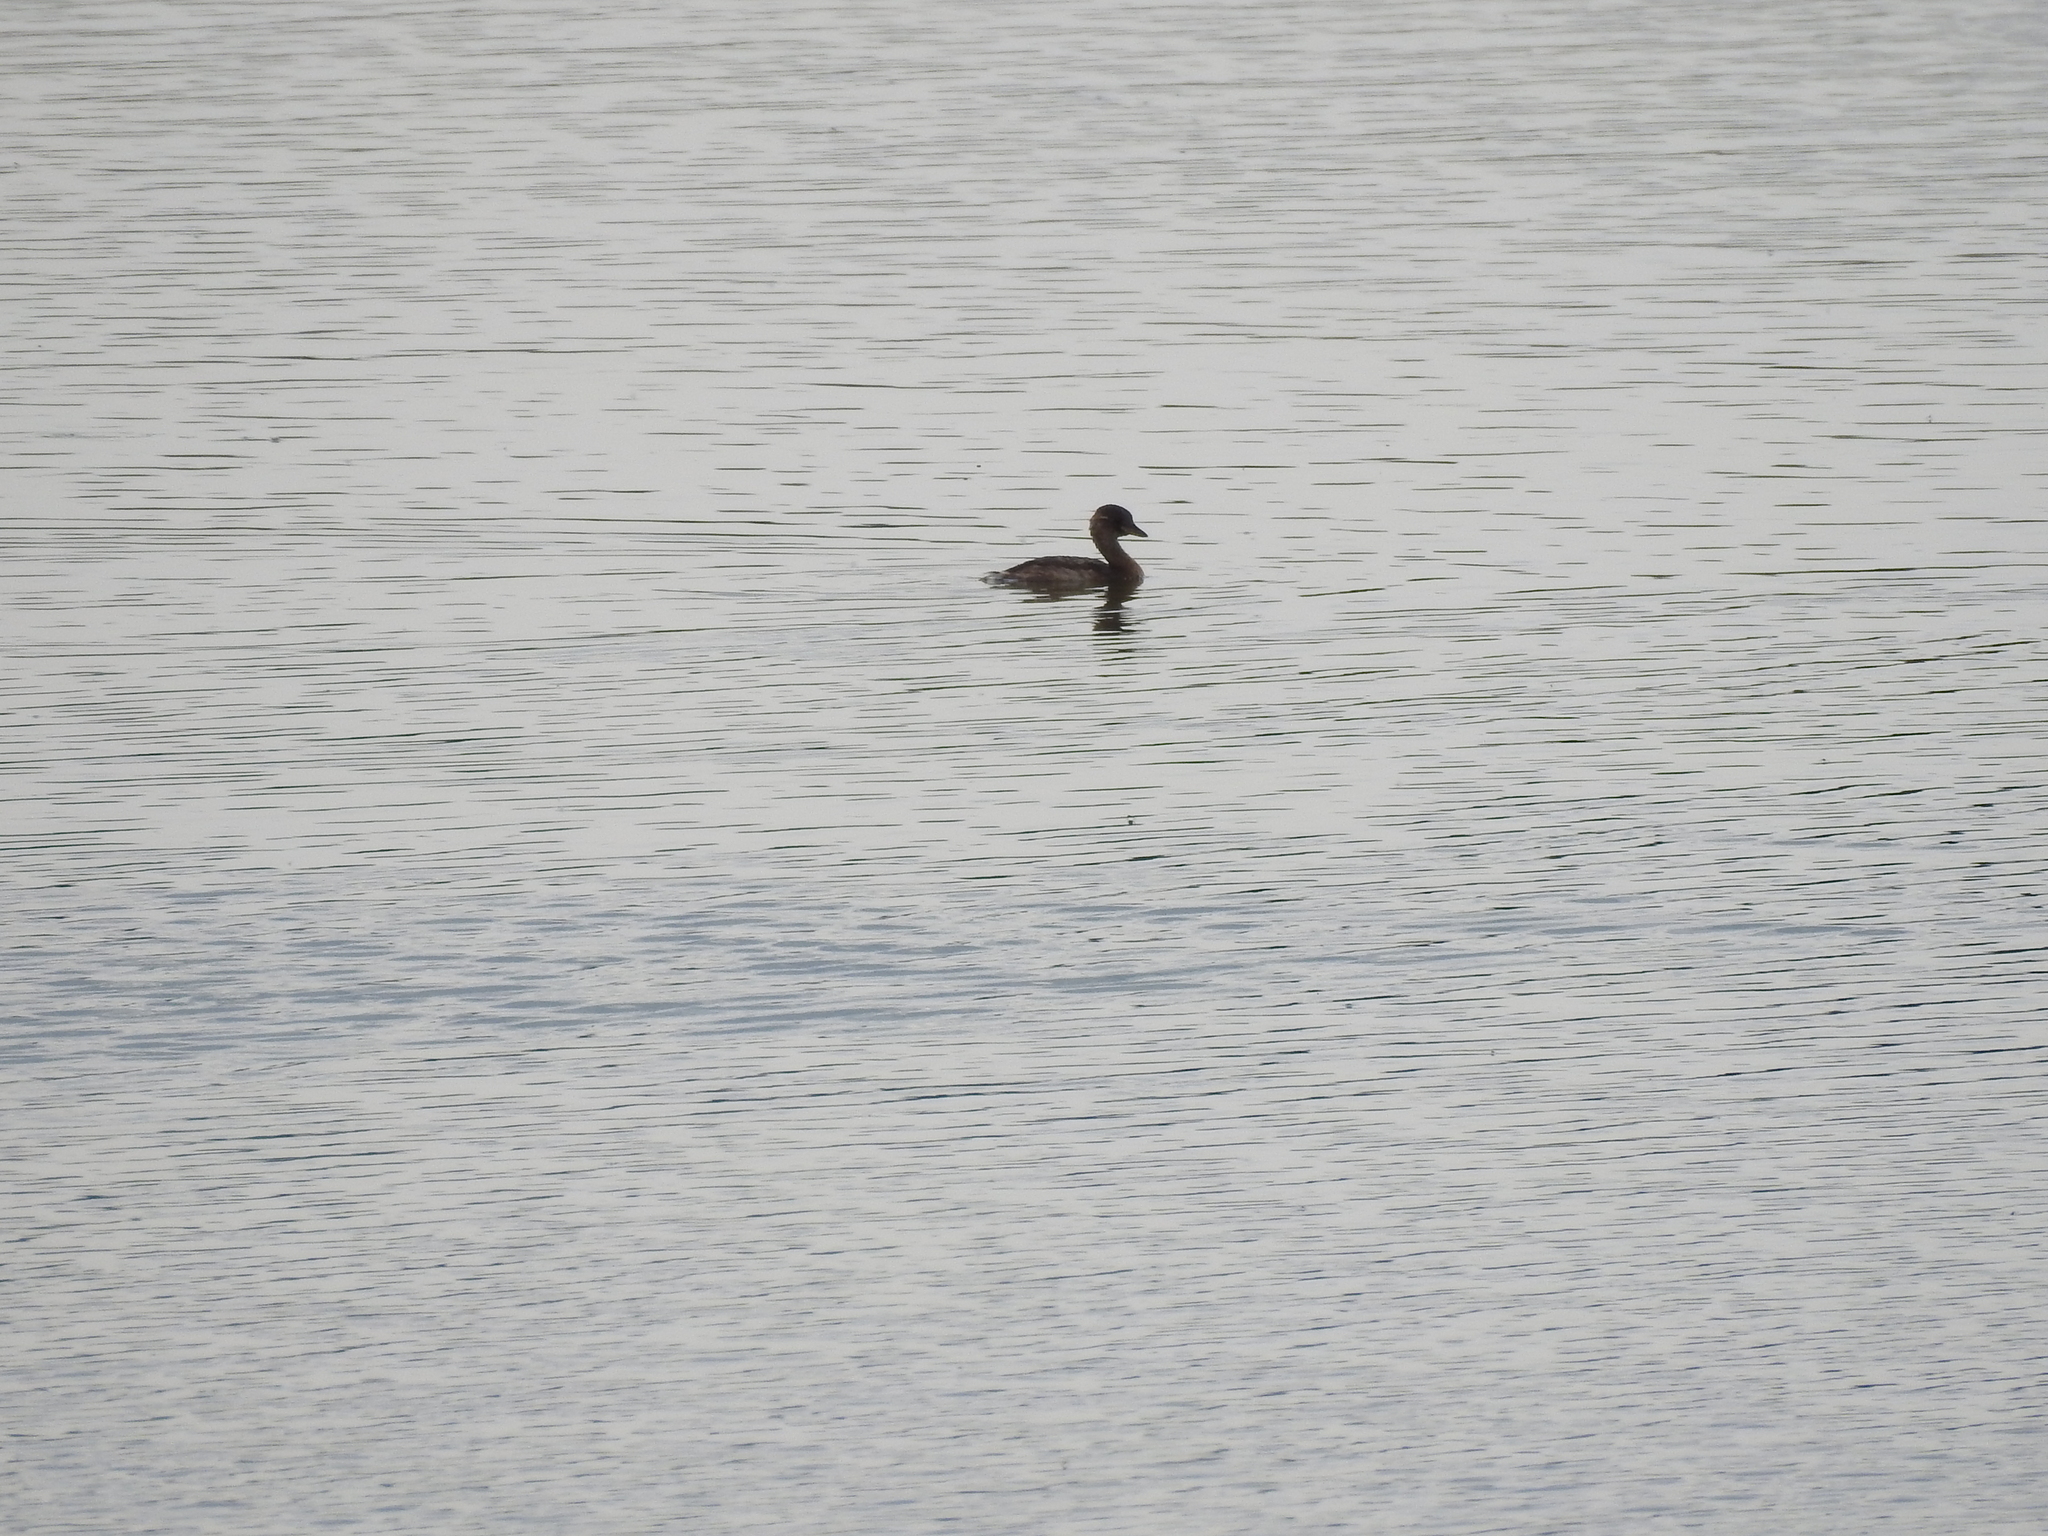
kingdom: Animalia
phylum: Chordata
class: Aves
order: Podicipediformes
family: Podicipedidae
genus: Tachybaptus
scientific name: Tachybaptus ruficollis
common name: Little grebe
